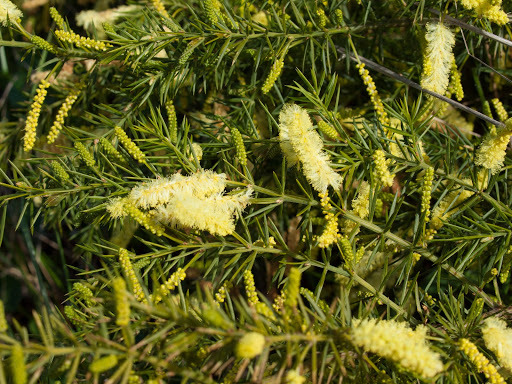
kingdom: Plantae
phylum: Tracheophyta
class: Magnoliopsida
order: Fabales
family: Fabaceae
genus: Acacia
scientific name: Acacia verticillata
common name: Prickly moses
